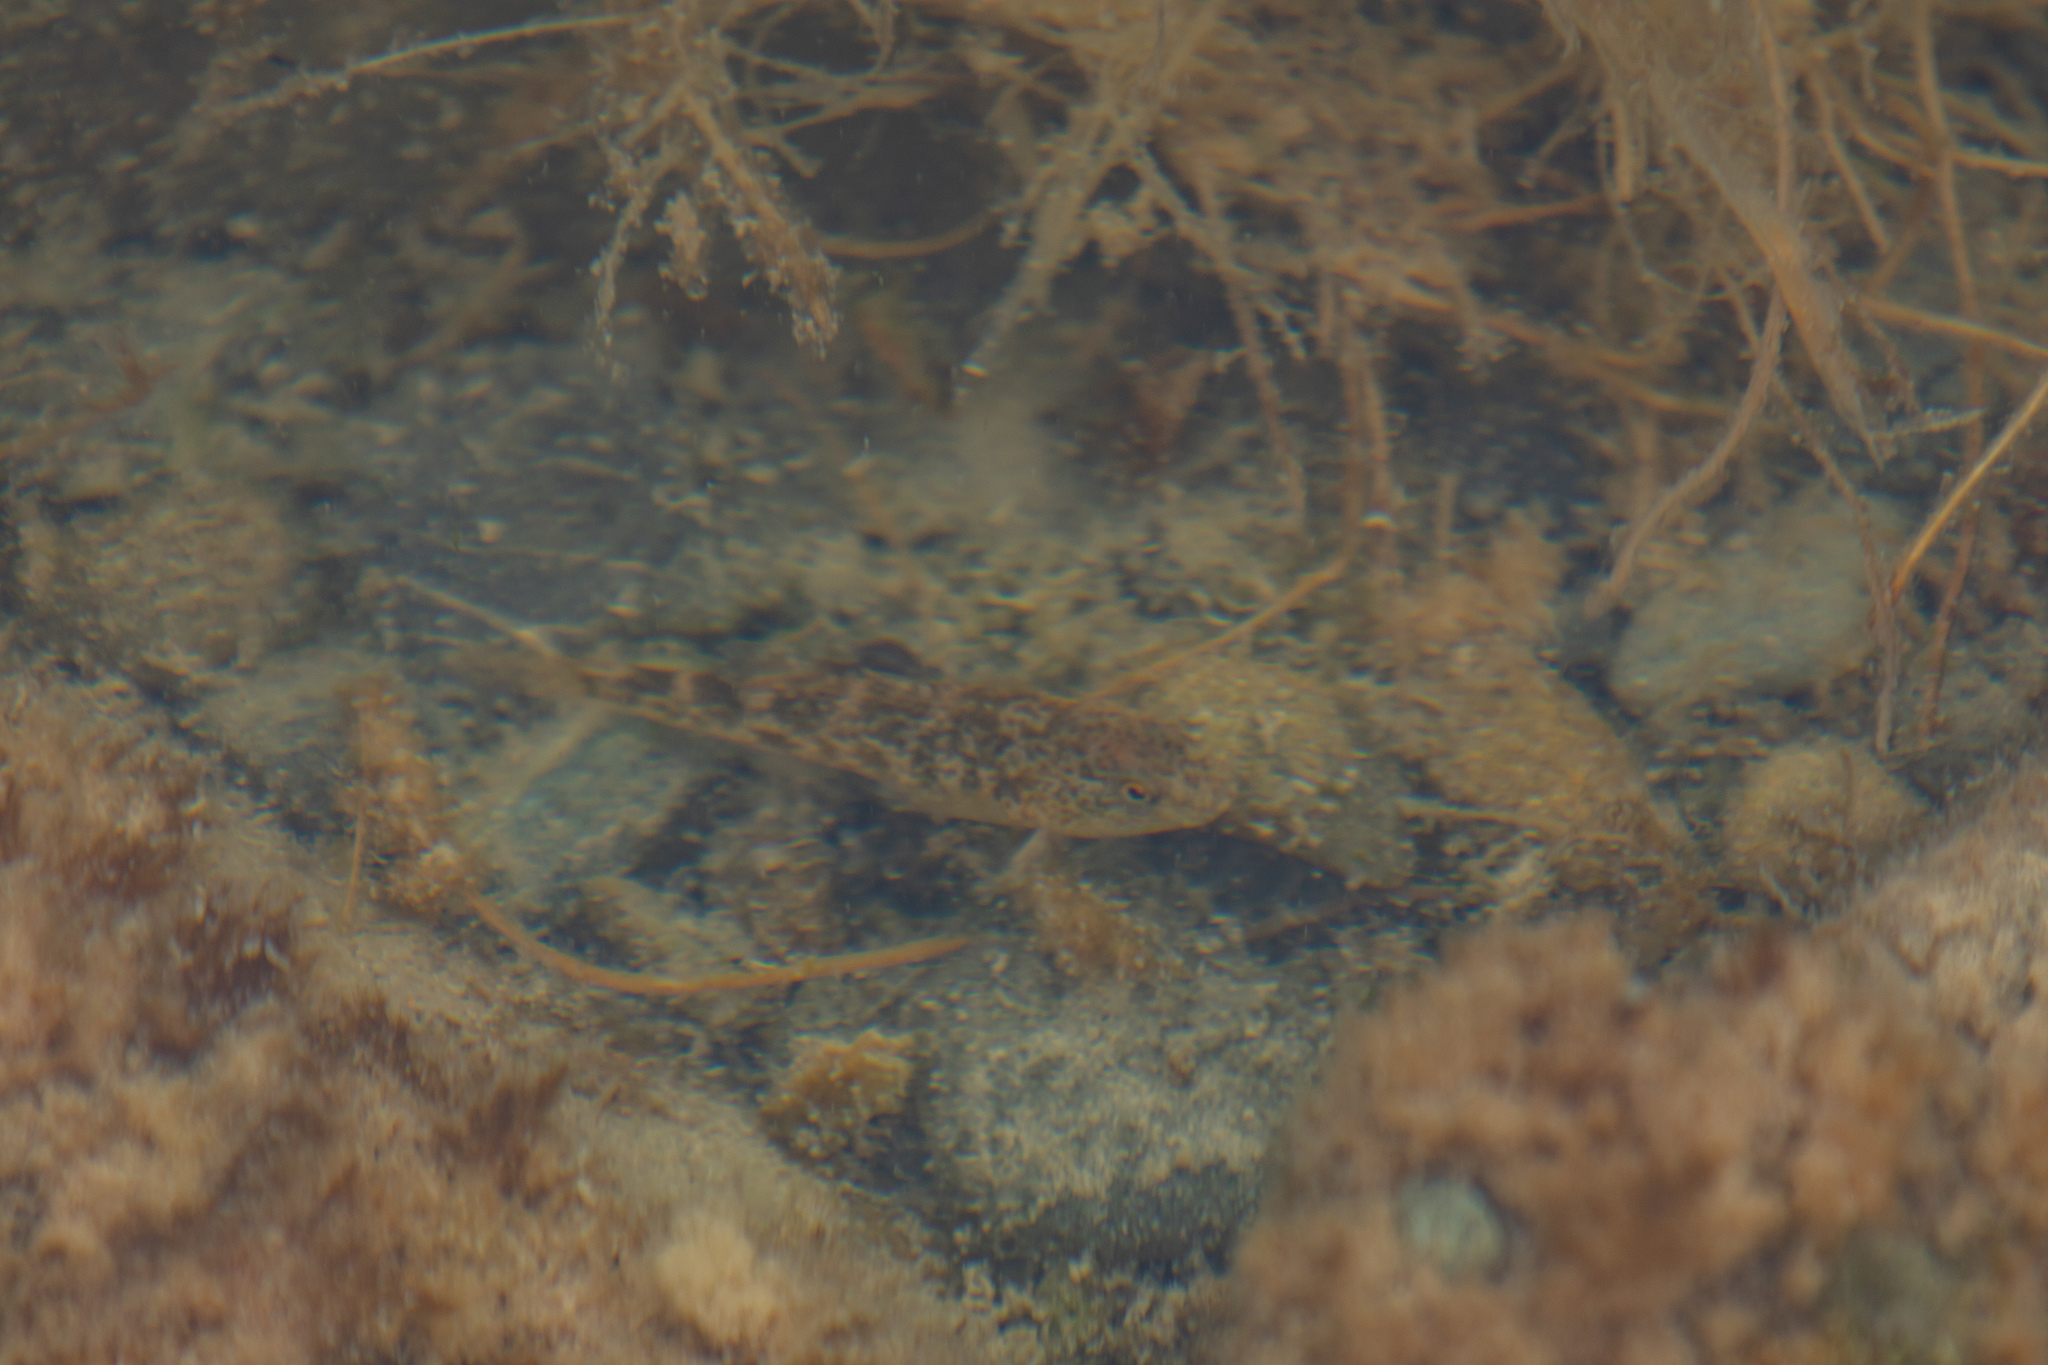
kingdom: Animalia
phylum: Chordata
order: Perciformes
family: Eleotridae
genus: Gobiomorphus
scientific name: Gobiomorphus breviceps
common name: Upland bully
